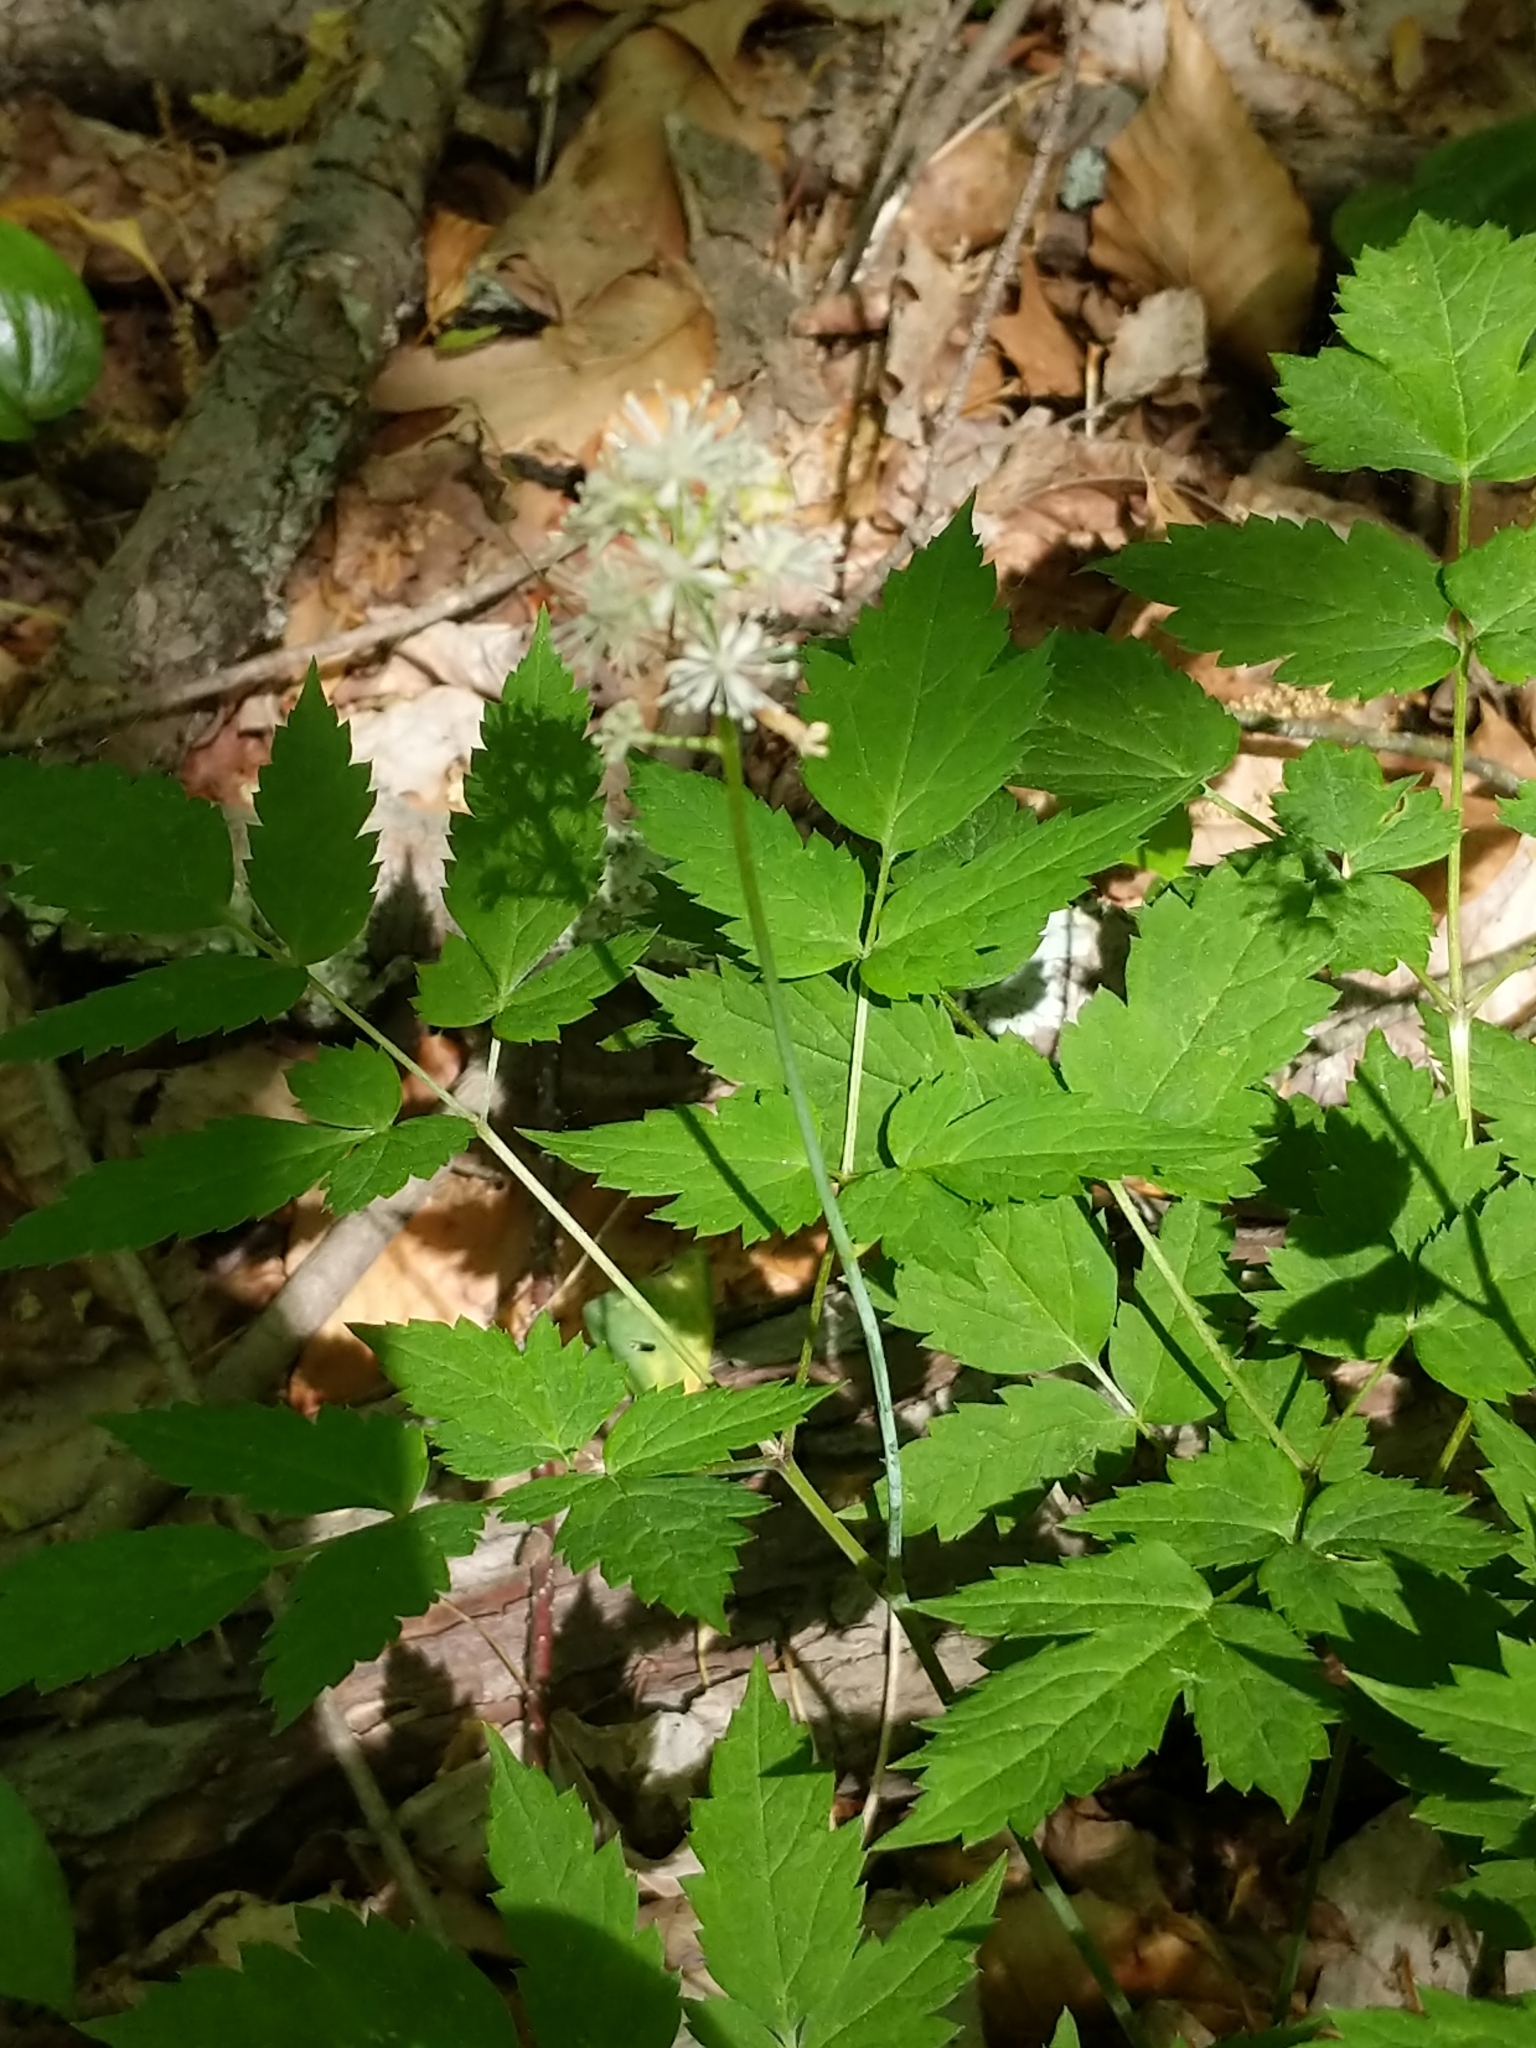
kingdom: Plantae
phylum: Tracheophyta
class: Magnoliopsida
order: Ranunculales
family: Ranunculaceae
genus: Actaea
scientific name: Actaea pachypoda
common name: Doll's-eyes
